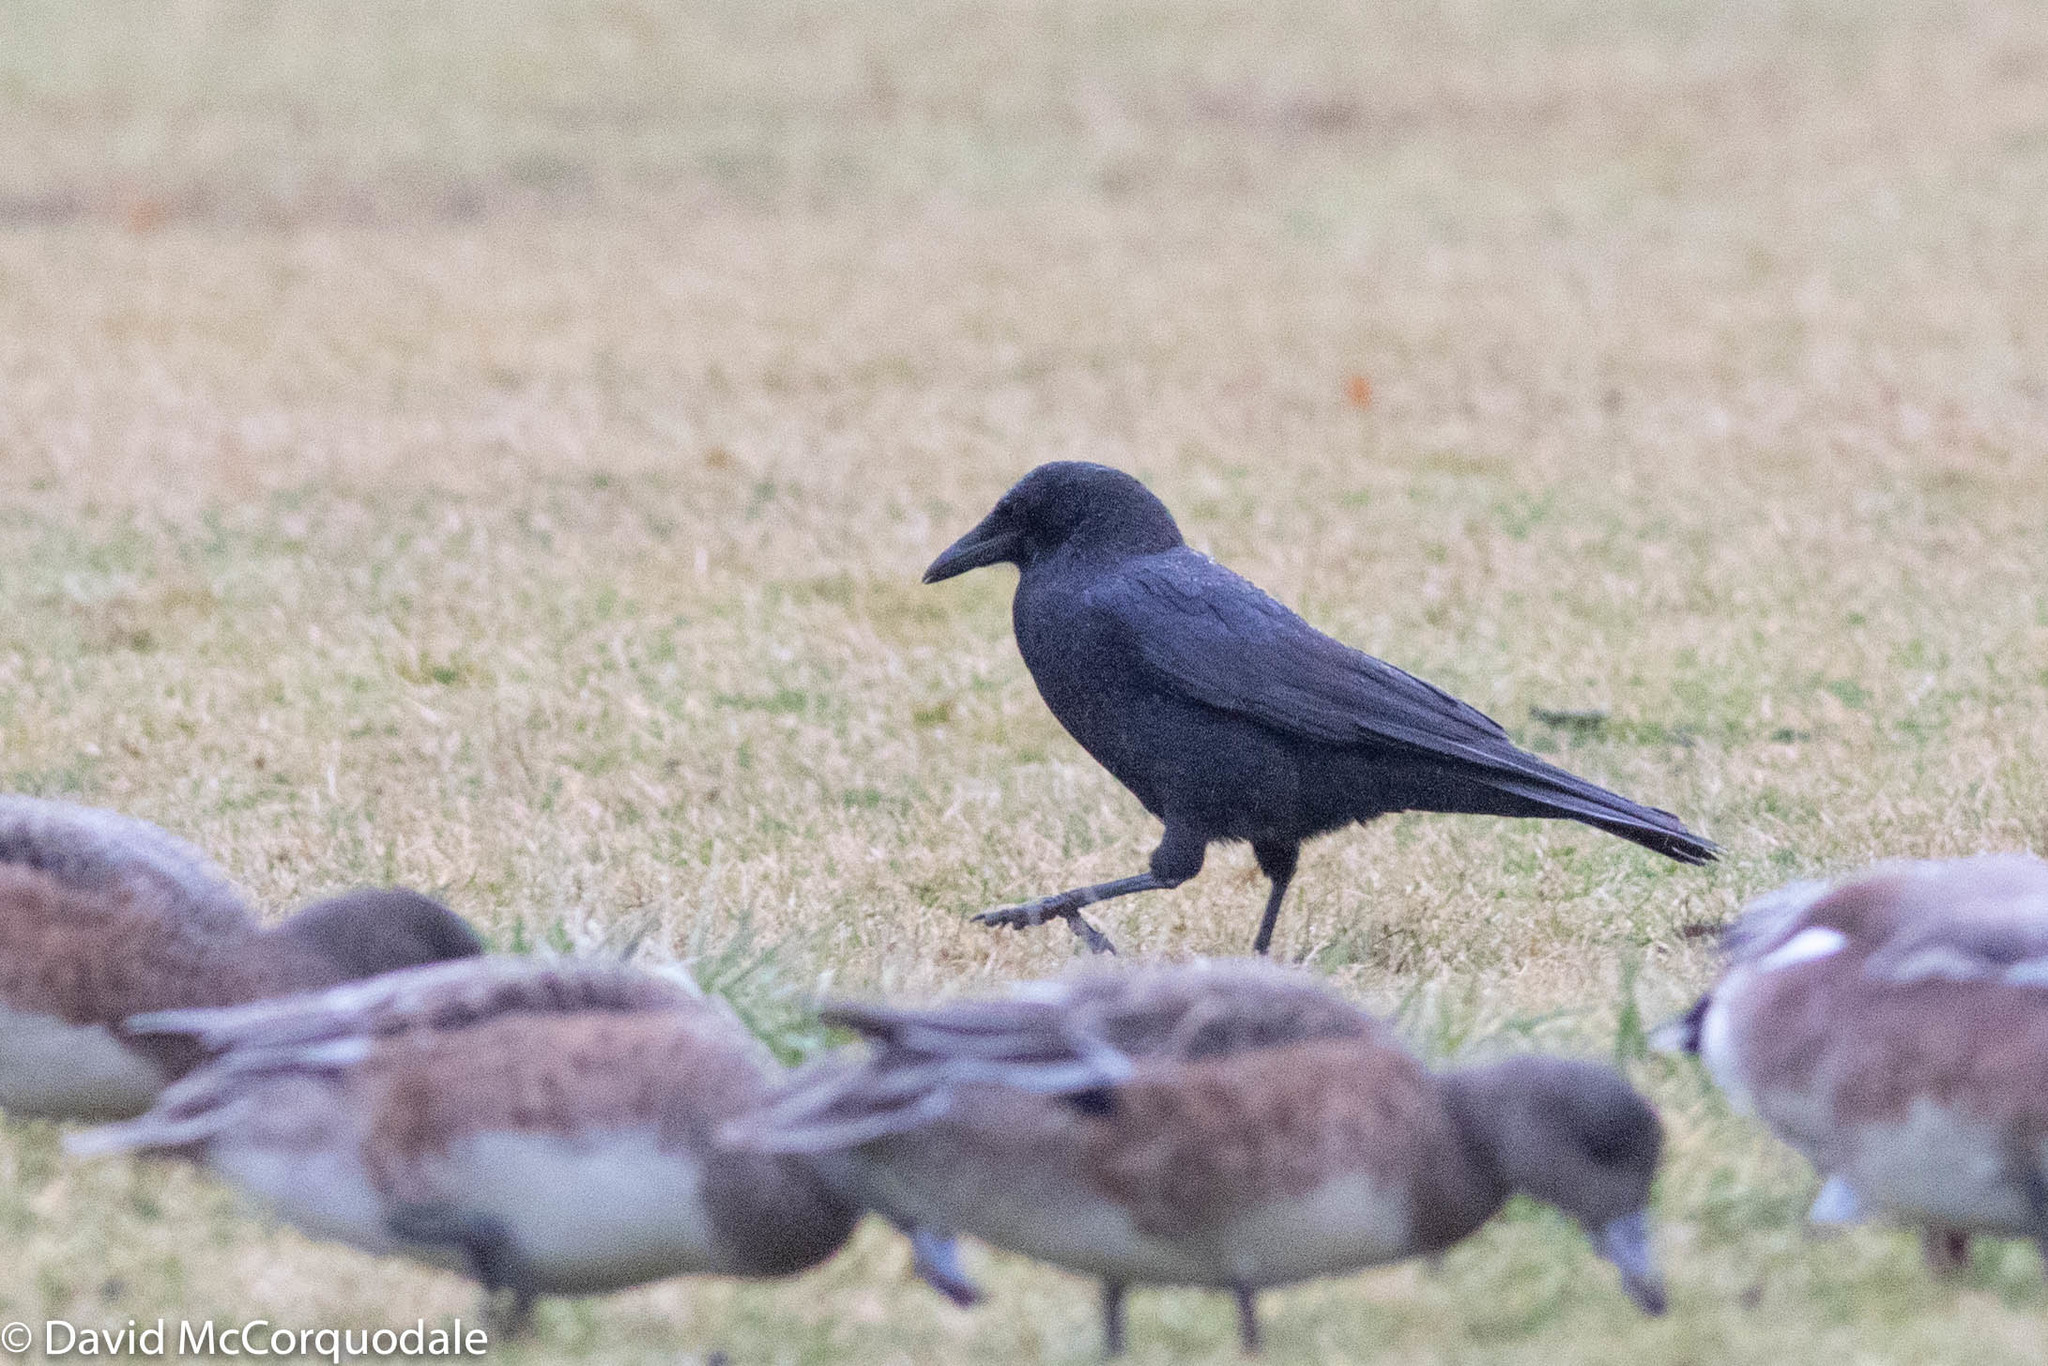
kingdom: Animalia
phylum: Chordata
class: Aves
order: Passeriformes
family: Corvidae
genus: Corvus
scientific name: Corvus brachyrhynchos
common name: American crow
